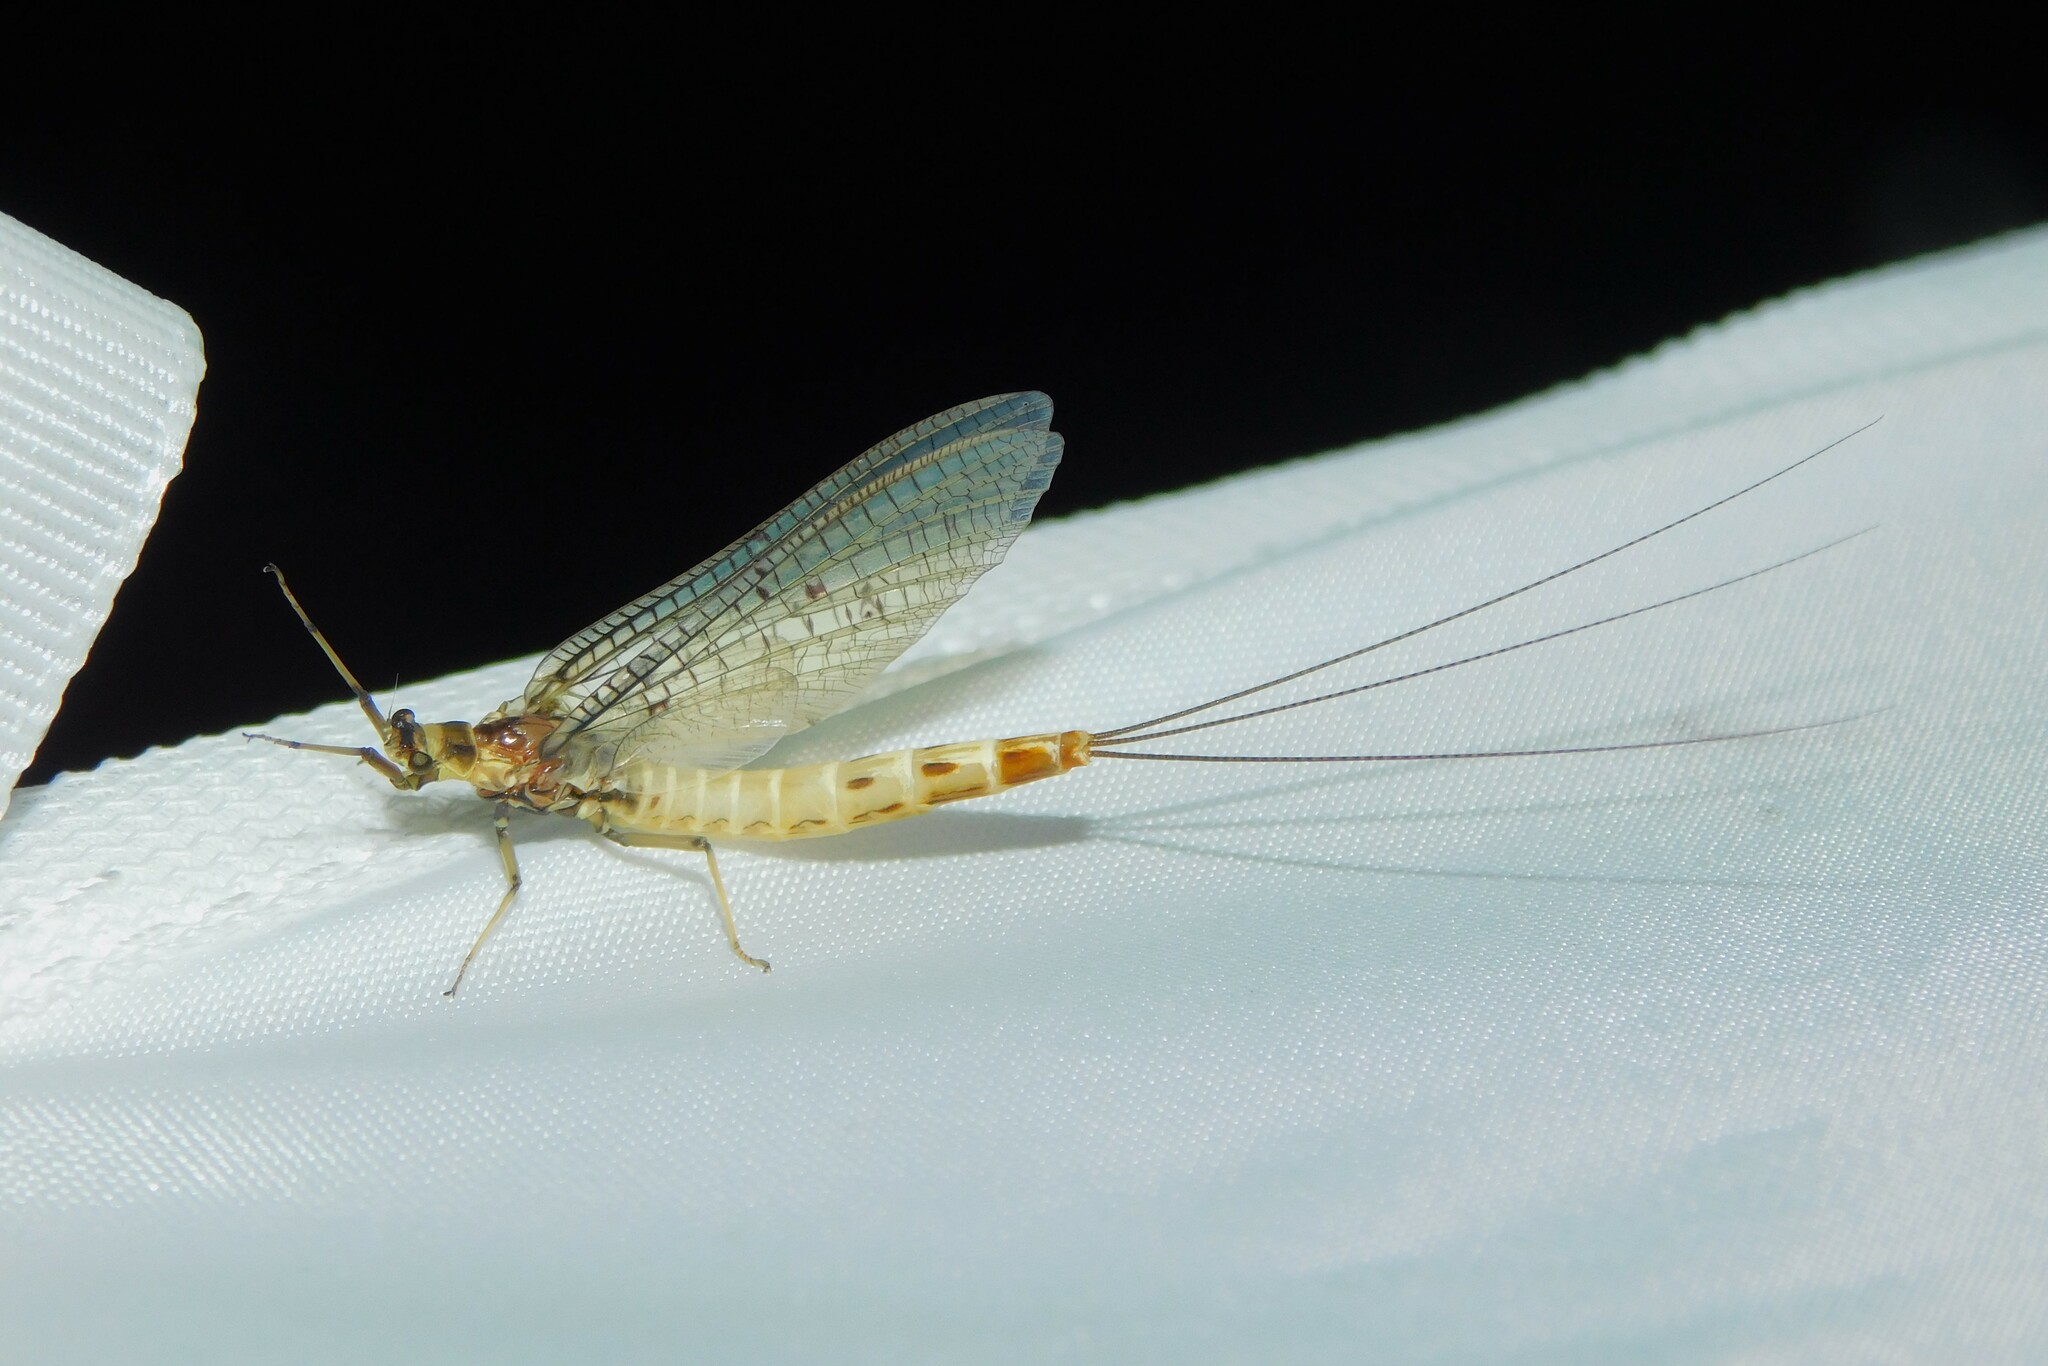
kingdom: Animalia
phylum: Arthropoda
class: Insecta
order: Ephemeroptera
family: Ephemeridae
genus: Ephemera
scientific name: Ephemera danica
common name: Green dun
